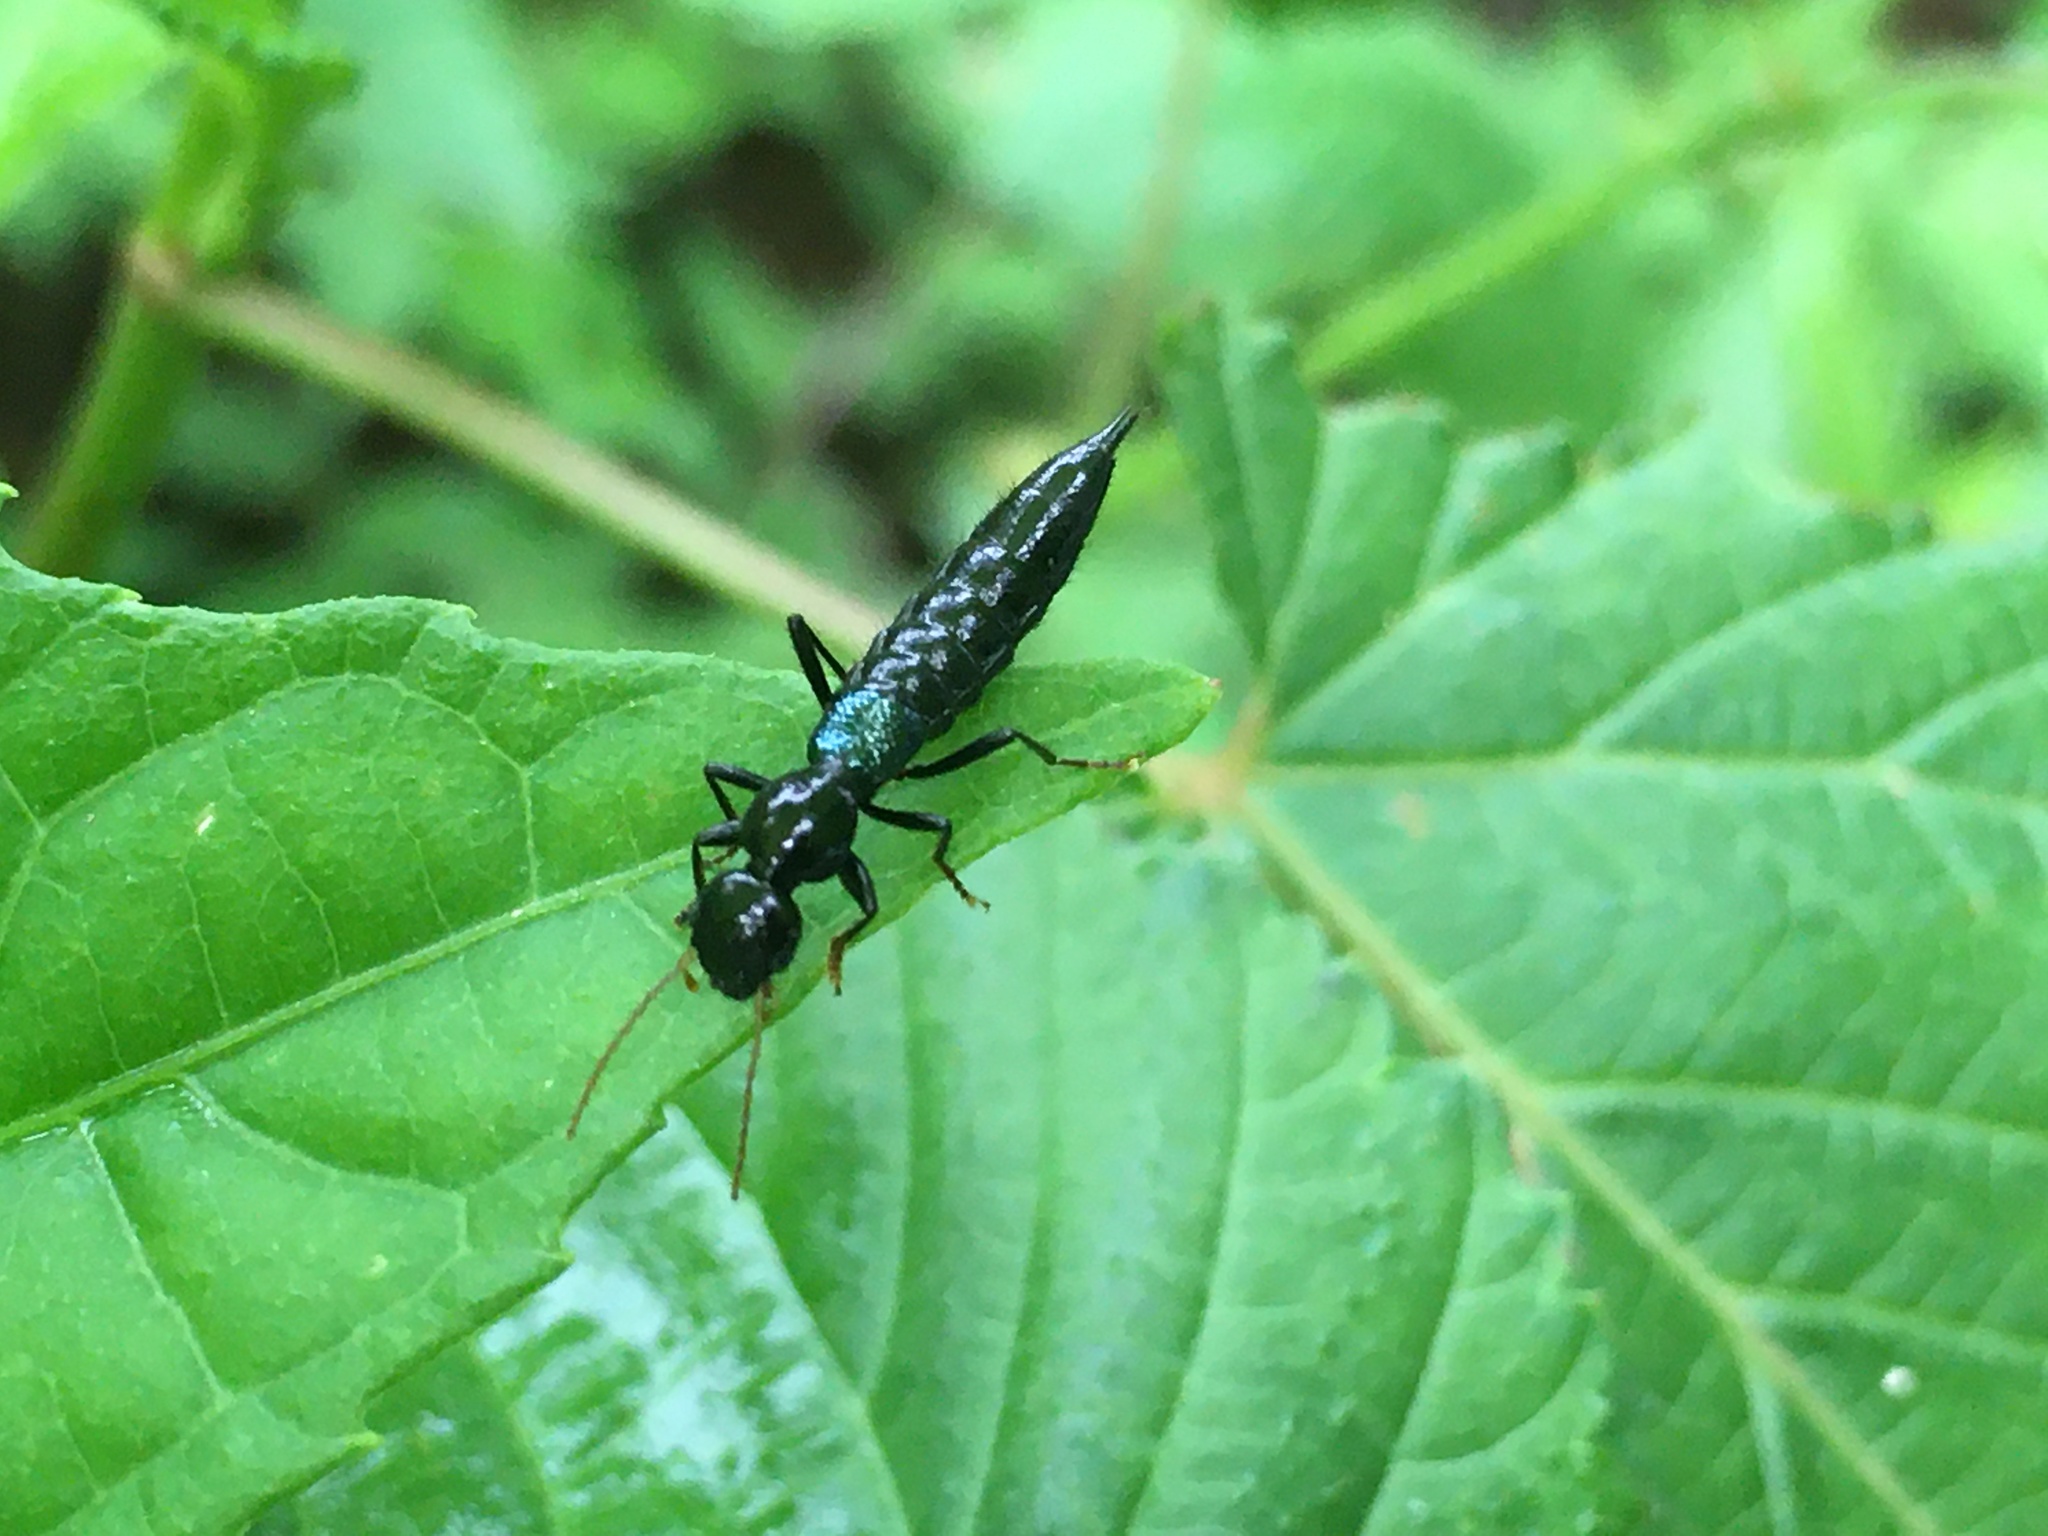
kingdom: Animalia
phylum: Arthropoda
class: Insecta
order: Coleoptera
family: Staphylinidae
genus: Paederus
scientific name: Paederus salvini
